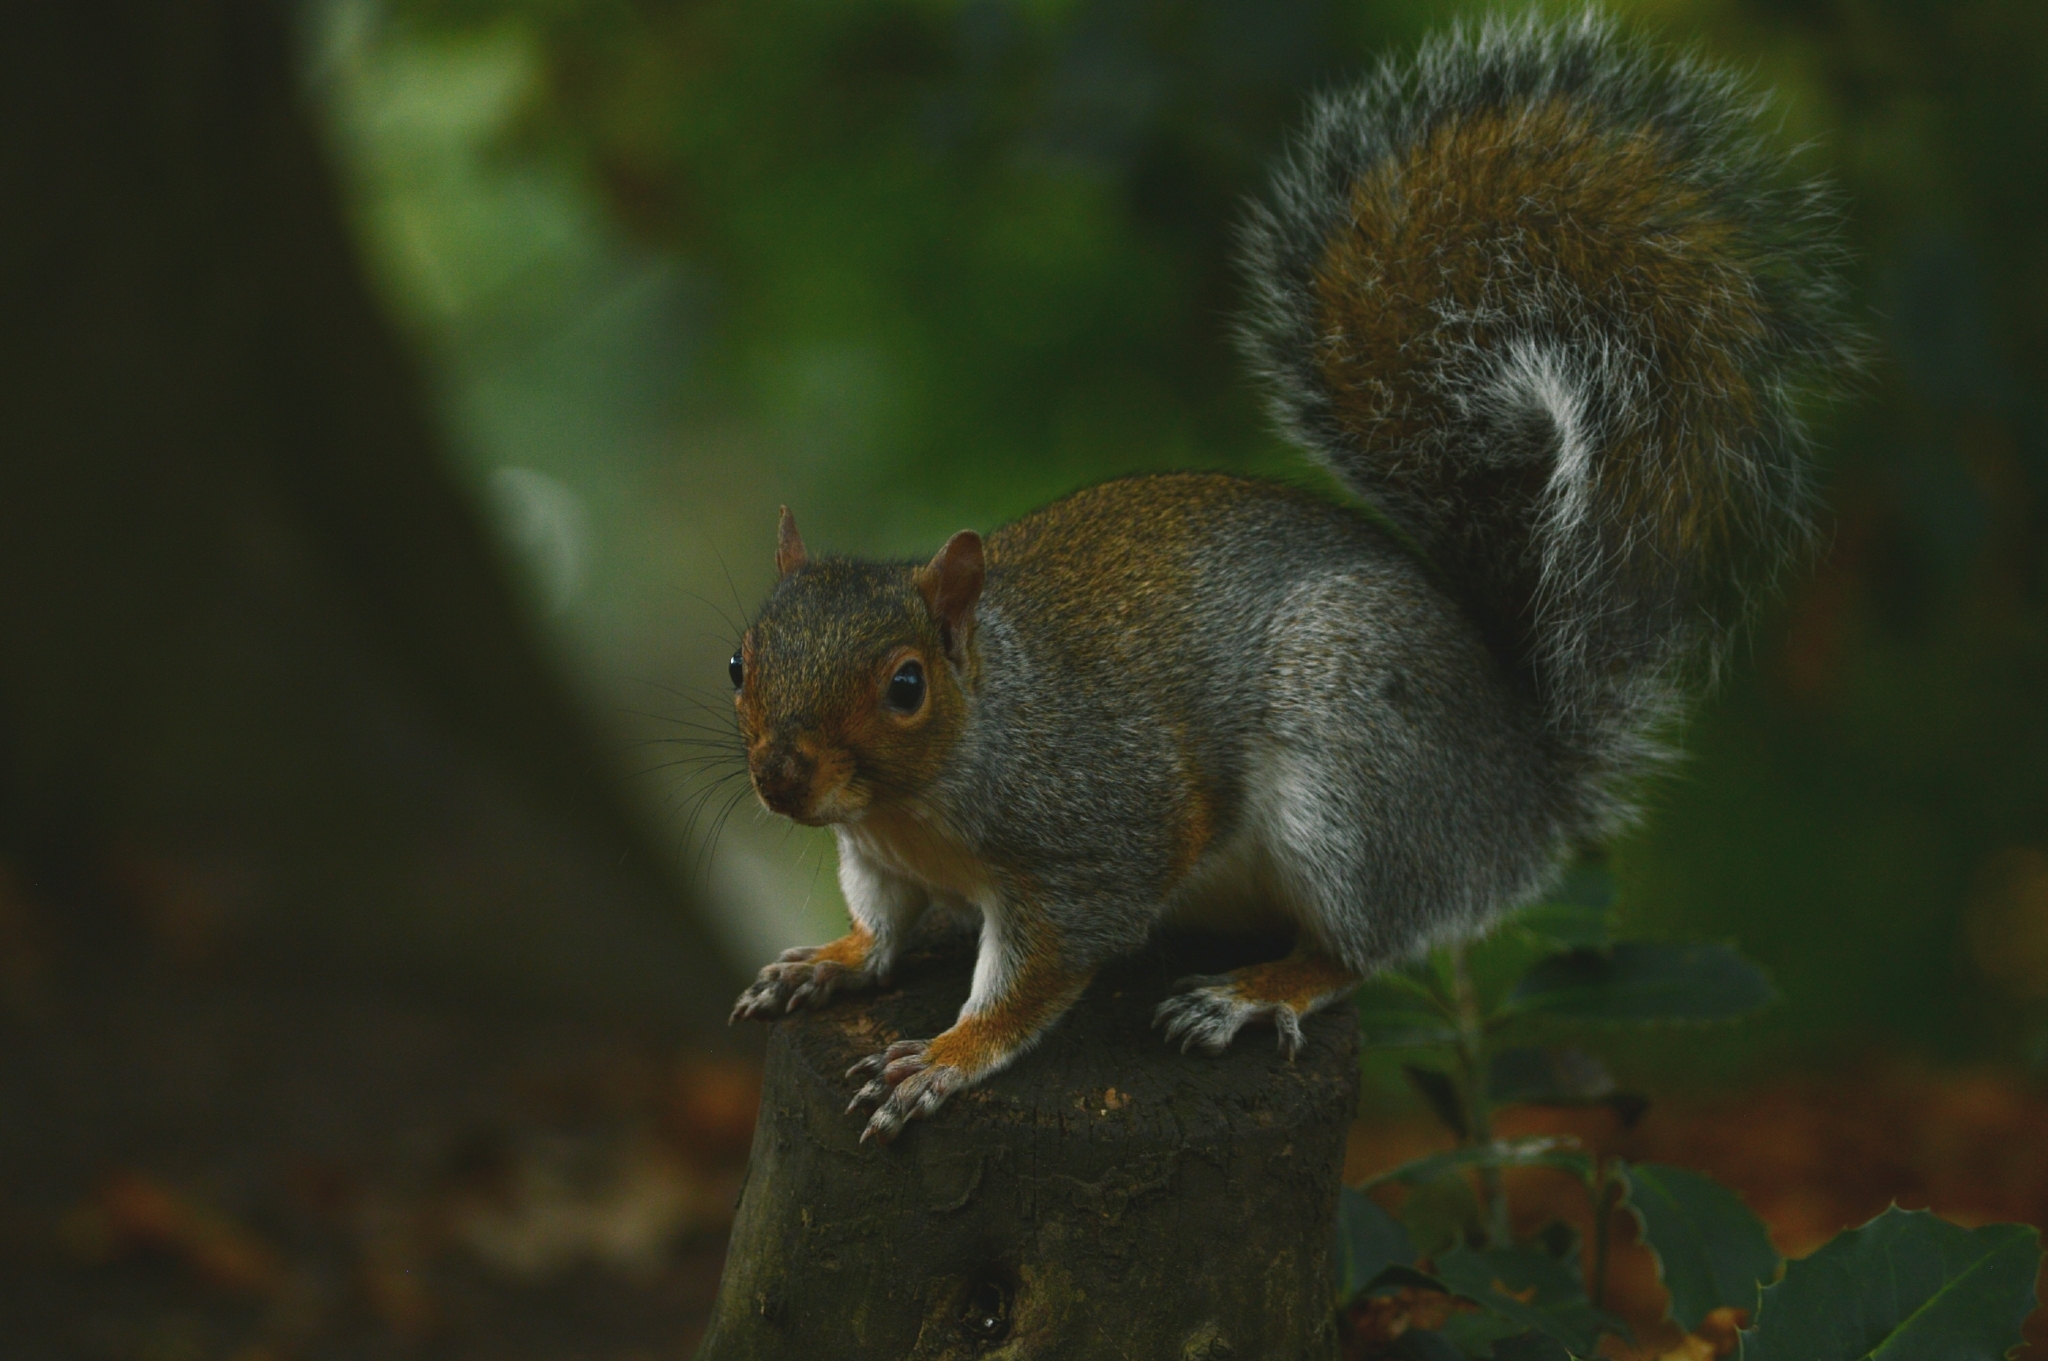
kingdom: Animalia
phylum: Chordata
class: Mammalia
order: Rodentia
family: Sciuridae
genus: Sciurus
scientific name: Sciurus carolinensis
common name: Eastern gray squirrel
